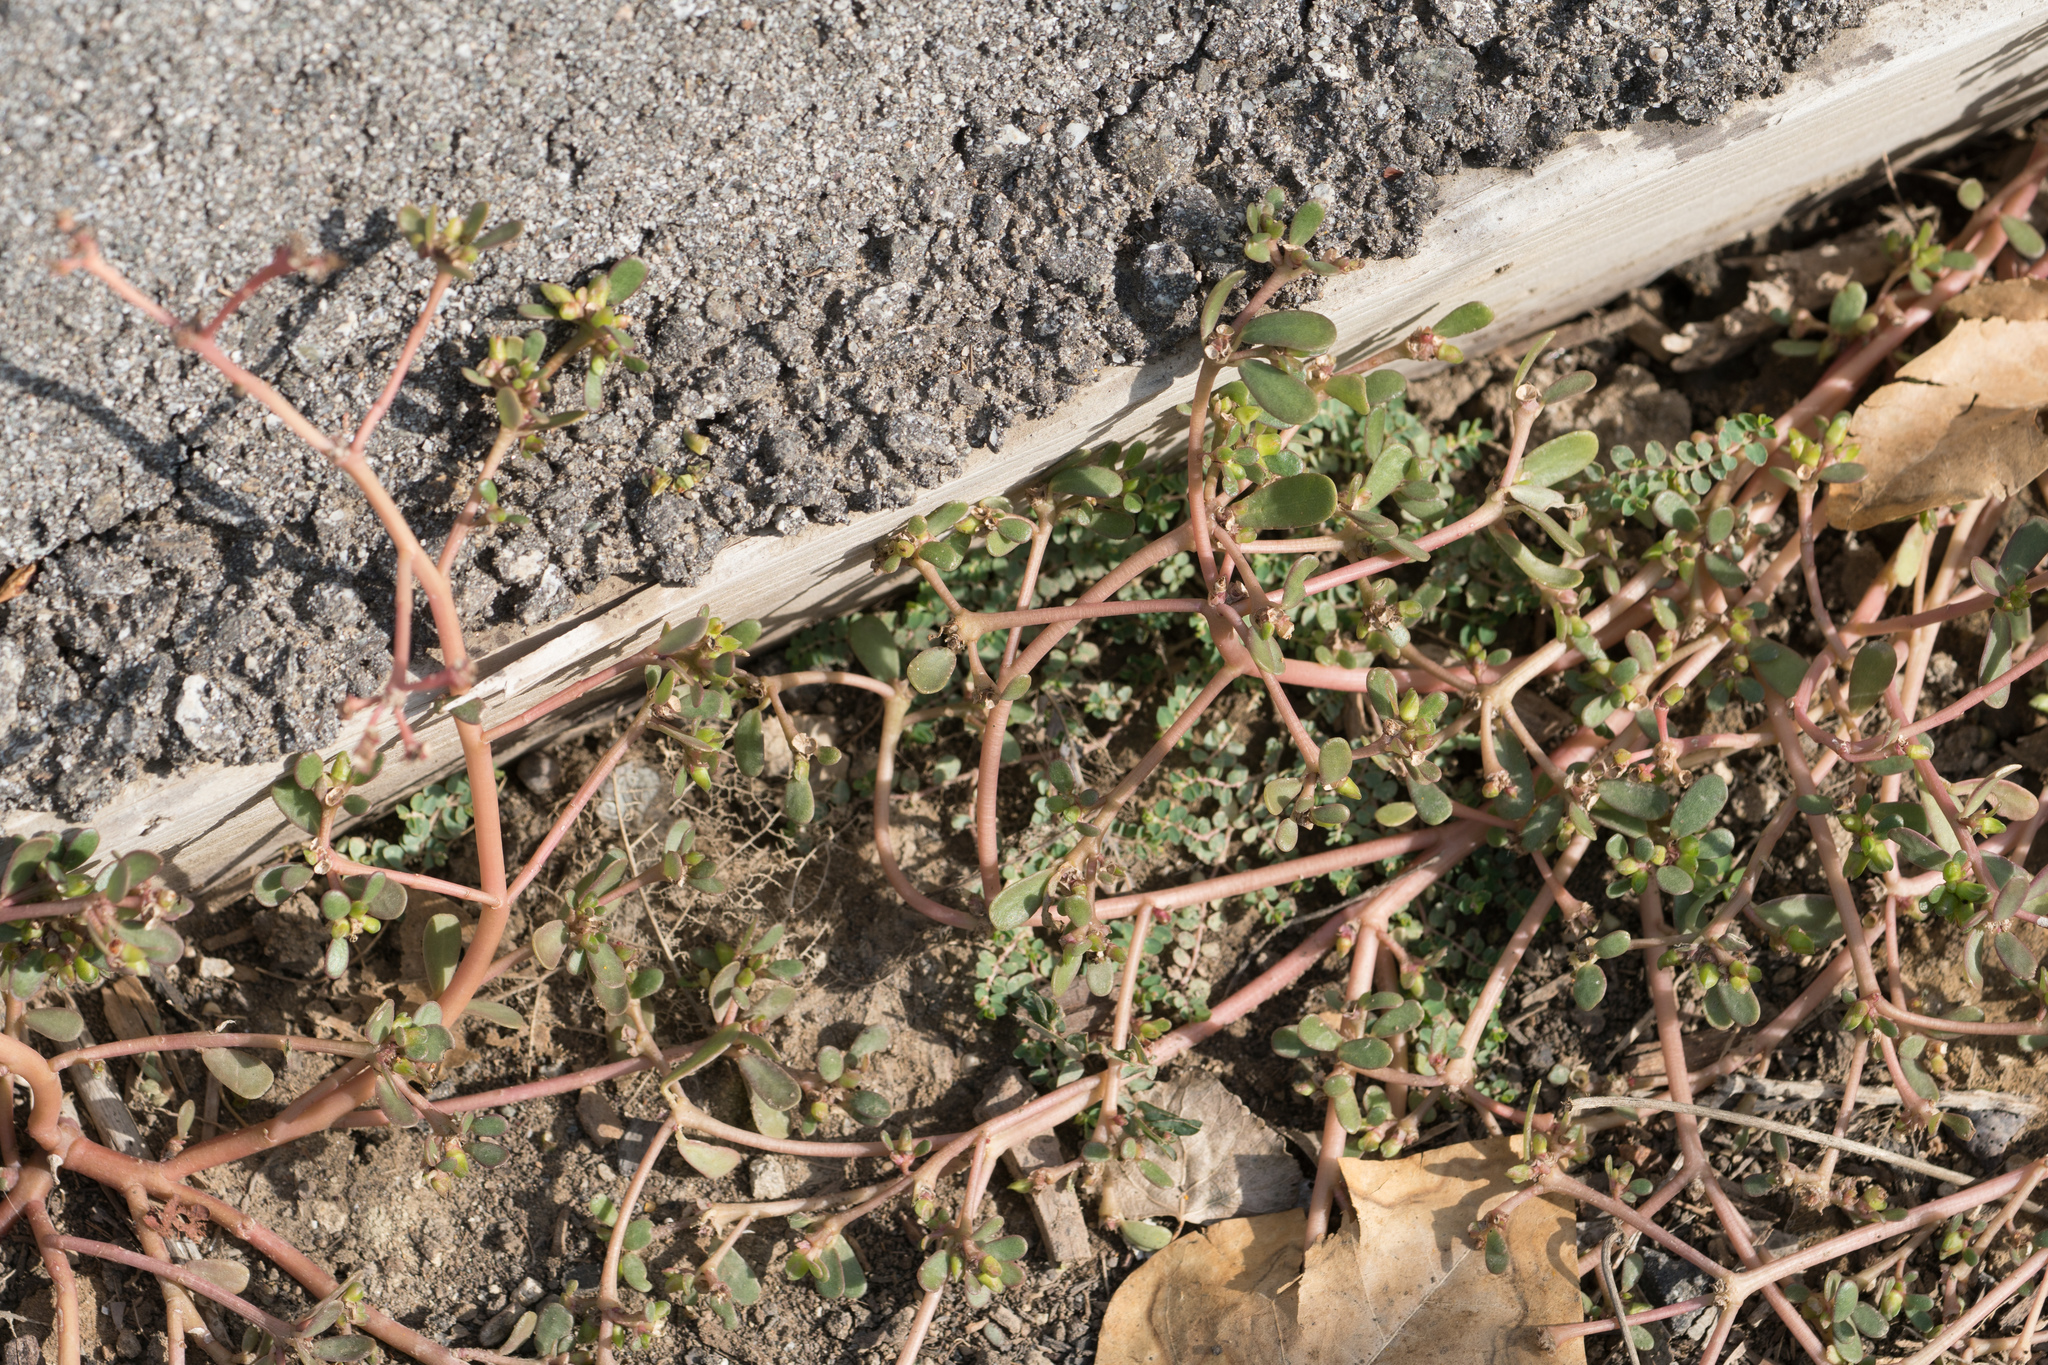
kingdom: Plantae
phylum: Tracheophyta
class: Magnoliopsida
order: Caryophyllales
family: Portulacaceae
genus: Portulaca
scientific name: Portulaca oleracea
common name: Common purslane
